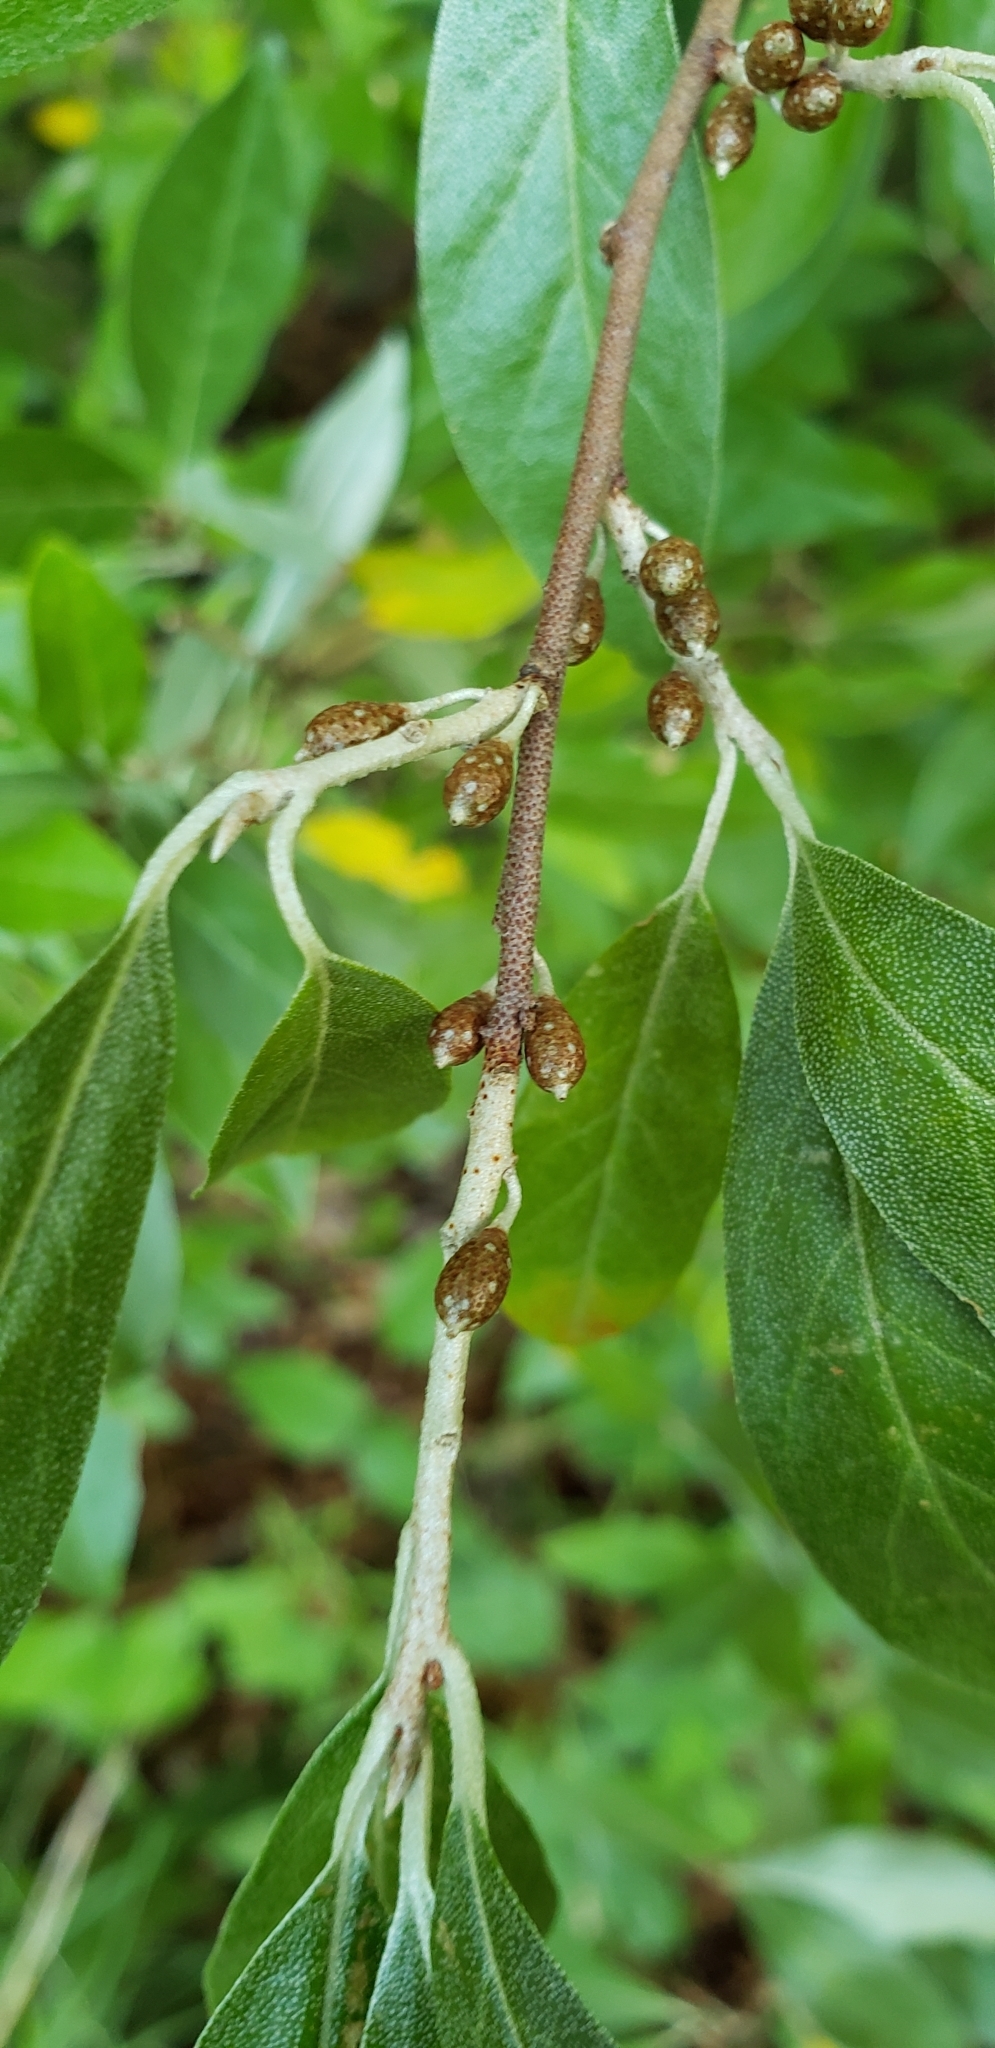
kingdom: Plantae
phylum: Tracheophyta
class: Magnoliopsida
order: Rosales
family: Elaeagnaceae
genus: Elaeagnus
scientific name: Elaeagnus umbellata
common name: Autumn olive
